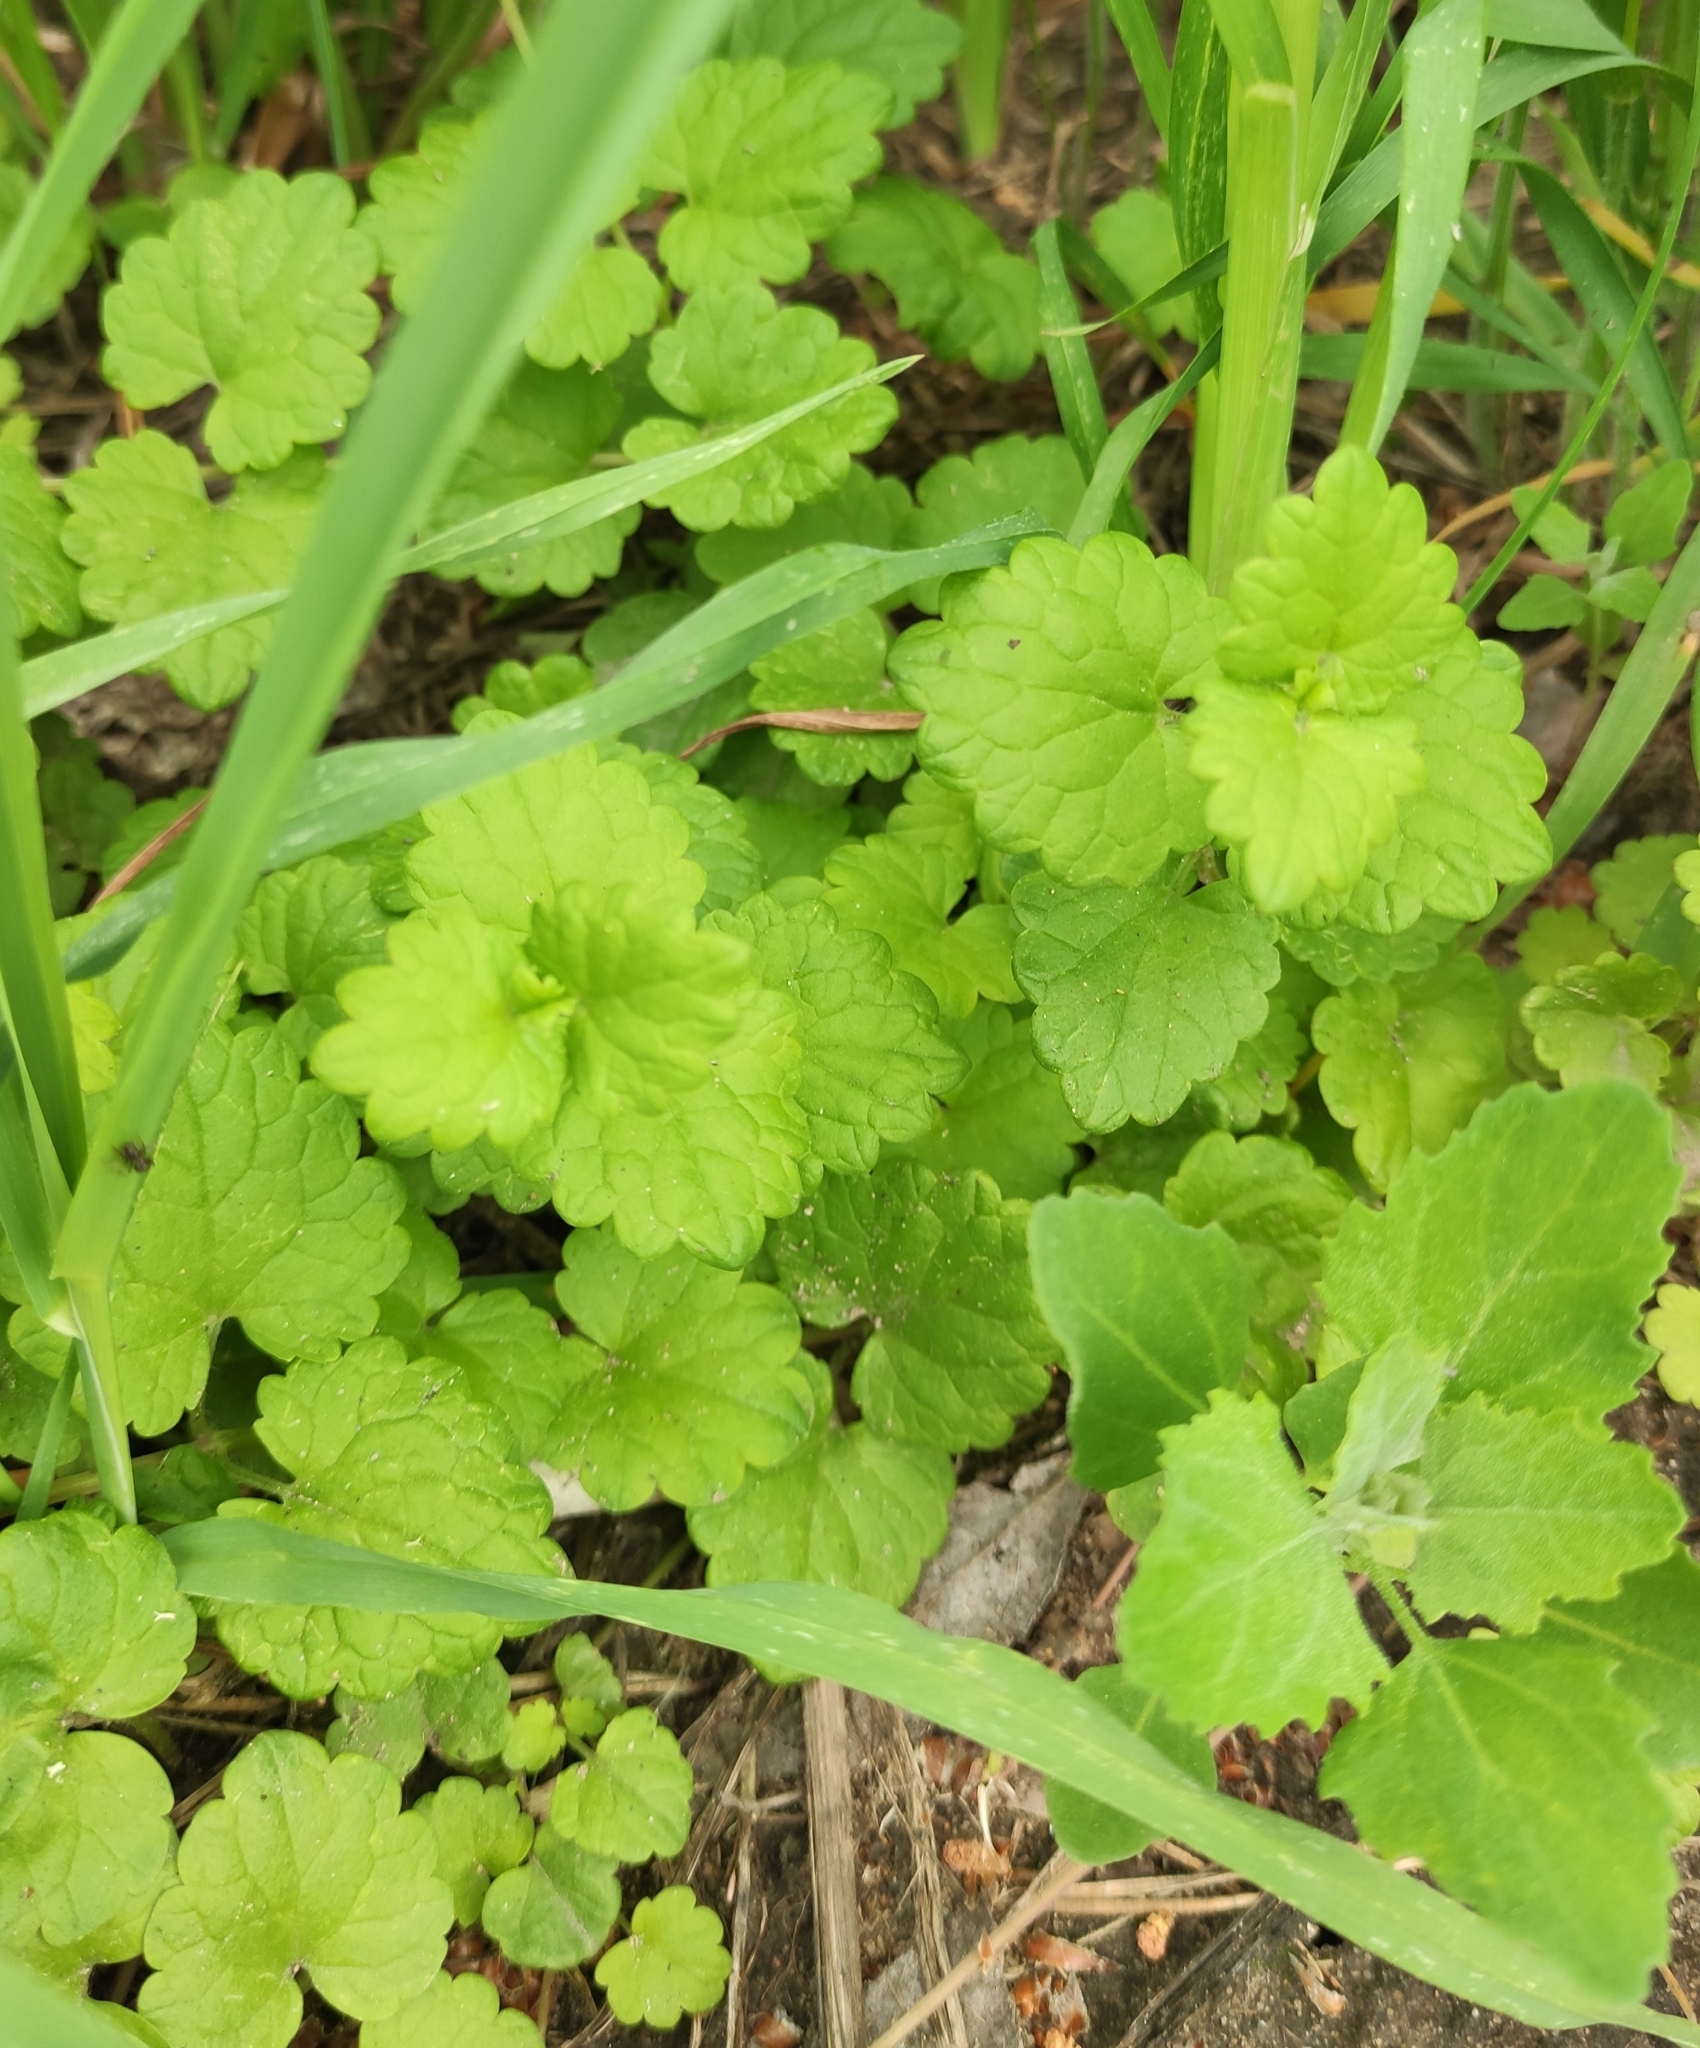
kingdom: Plantae
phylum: Tracheophyta
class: Magnoliopsida
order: Lamiales
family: Lamiaceae
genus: Glechoma
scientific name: Glechoma hederacea
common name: Ground ivy
